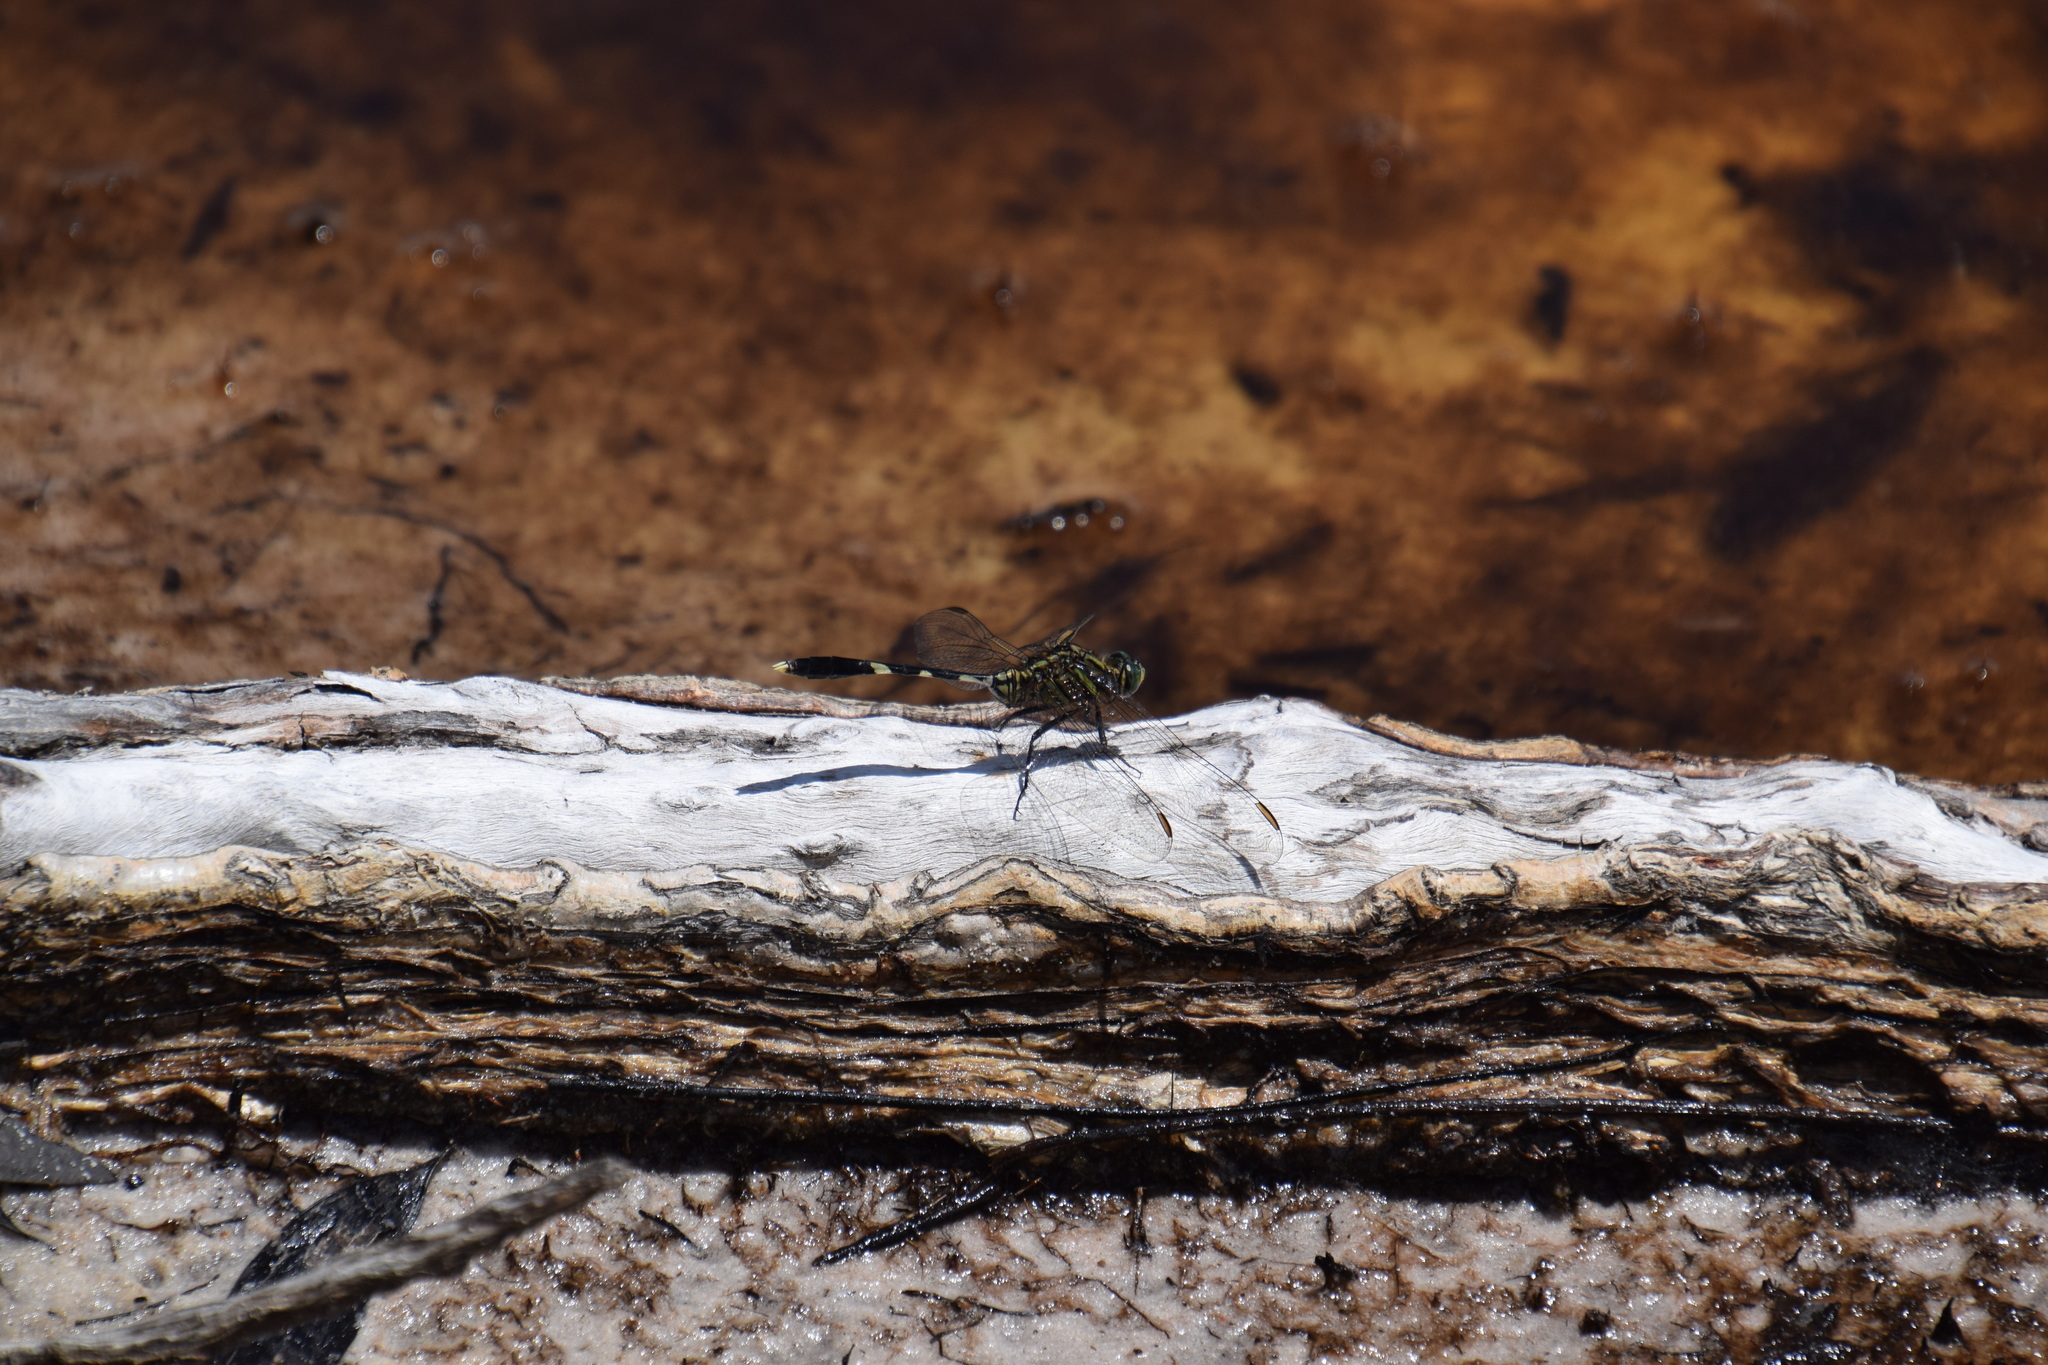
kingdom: Animalia
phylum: Arthropoda
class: Insecta
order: Odonata
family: Libellulidae
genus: Orthetrum
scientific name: Orthetrum sabina
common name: Slender skimmer
